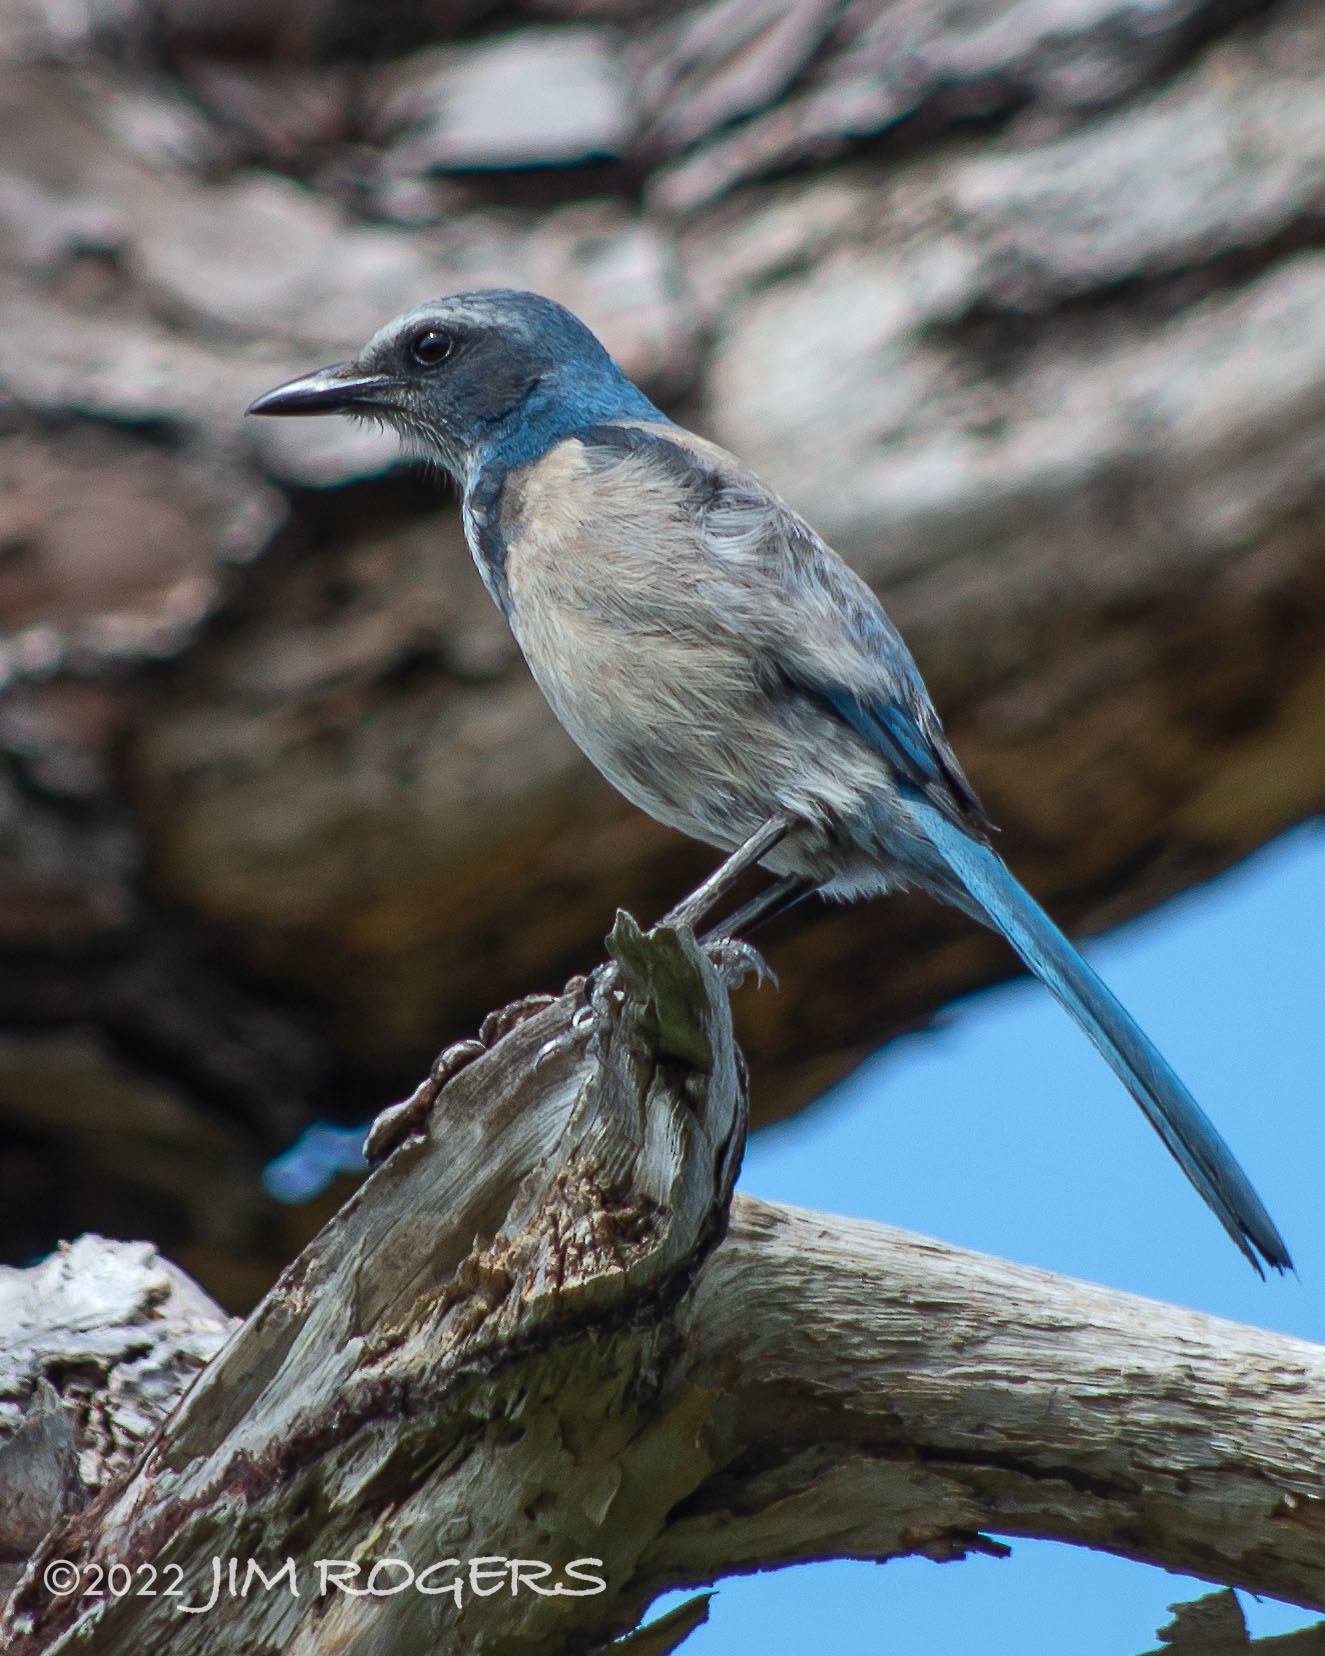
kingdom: Animalia
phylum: Chordata
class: Aves
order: Passeriformes
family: Corvidae
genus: Aphelocoma
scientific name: Aphelocoma coerulescens
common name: Florida scrub jay
